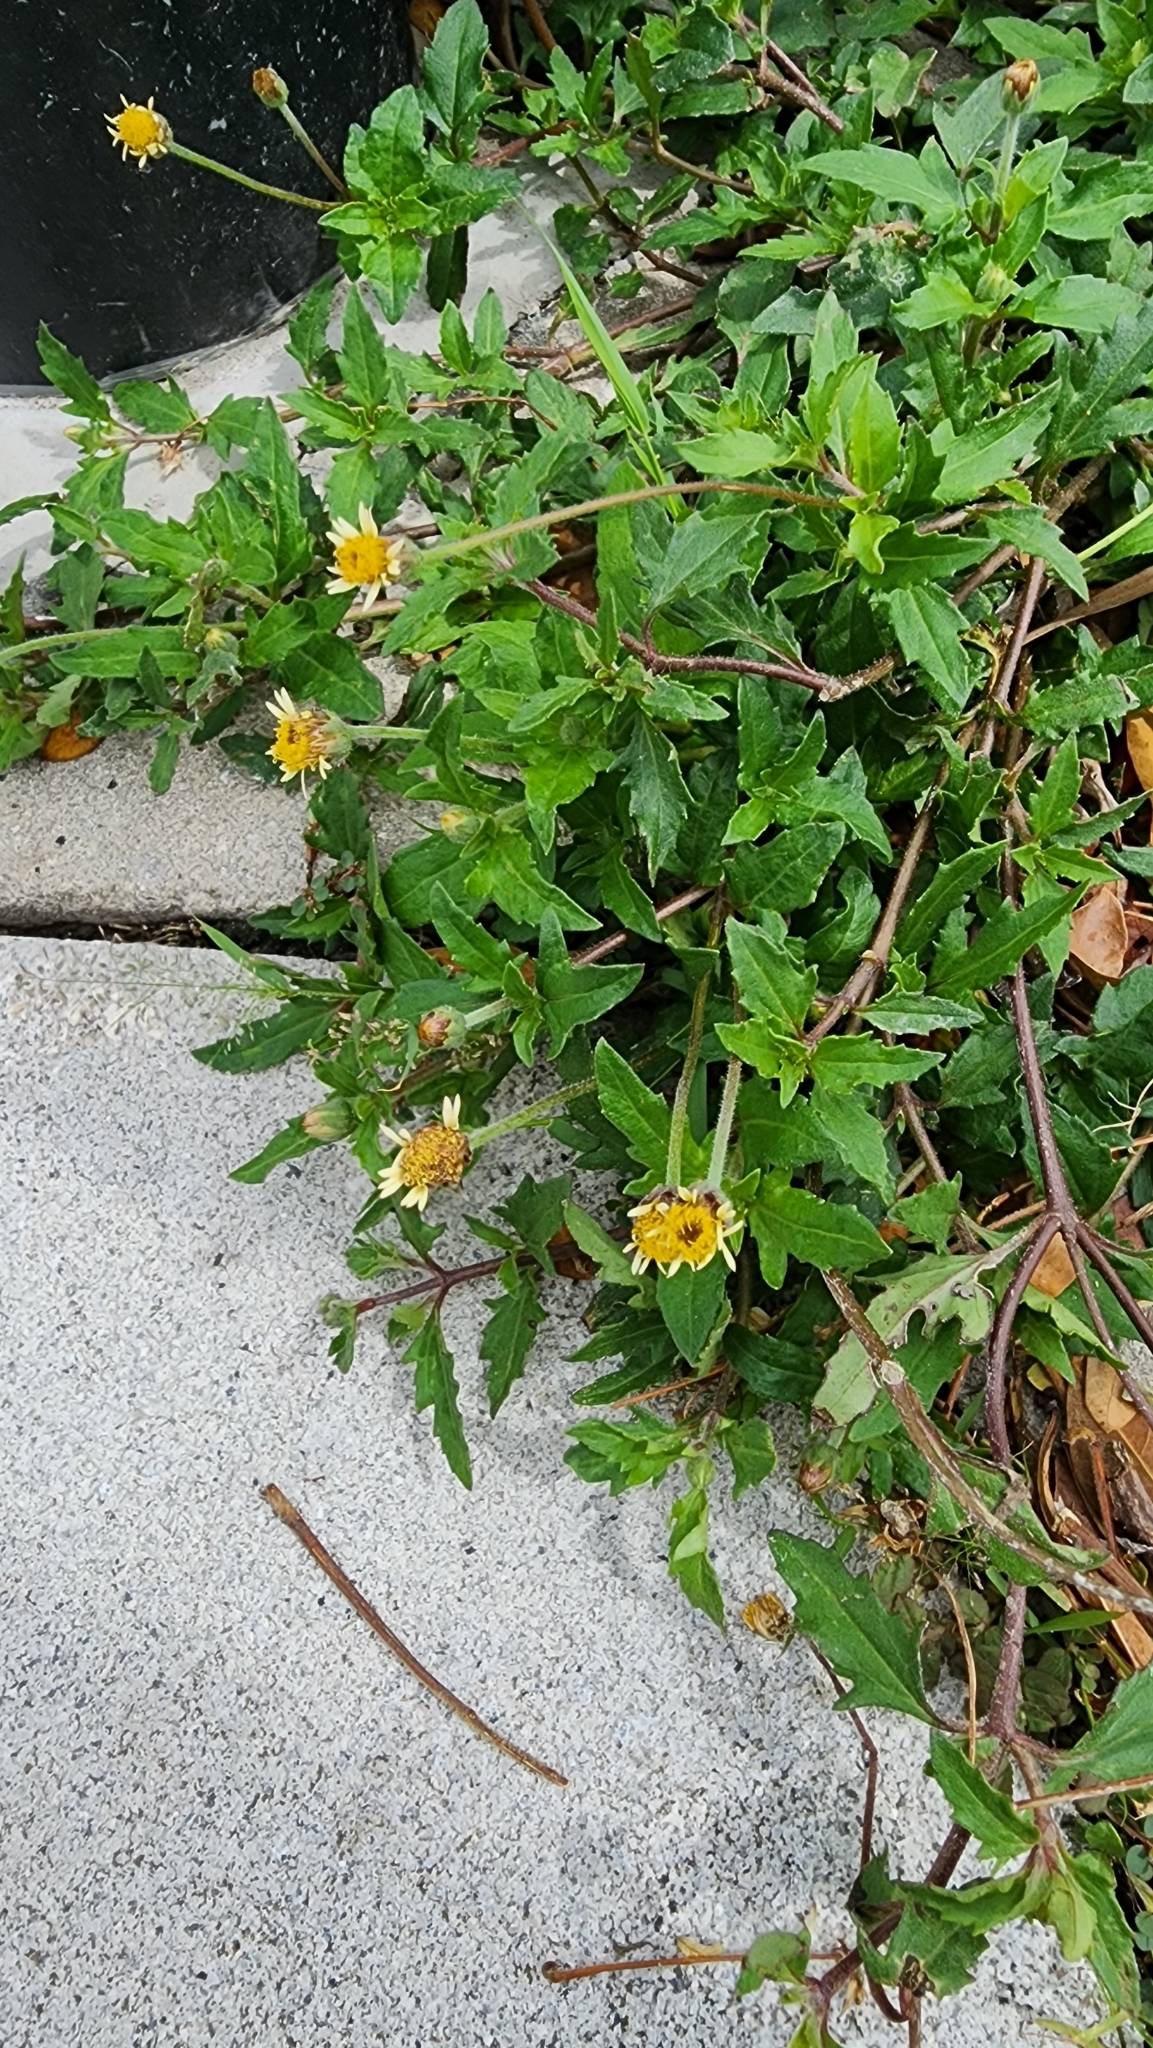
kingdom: Plantae
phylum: Tracheophyta
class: Magnoliopsida
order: Asterales
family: Asteraceae
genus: Tridax
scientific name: Tridax procumbens
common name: Coatbuttons
